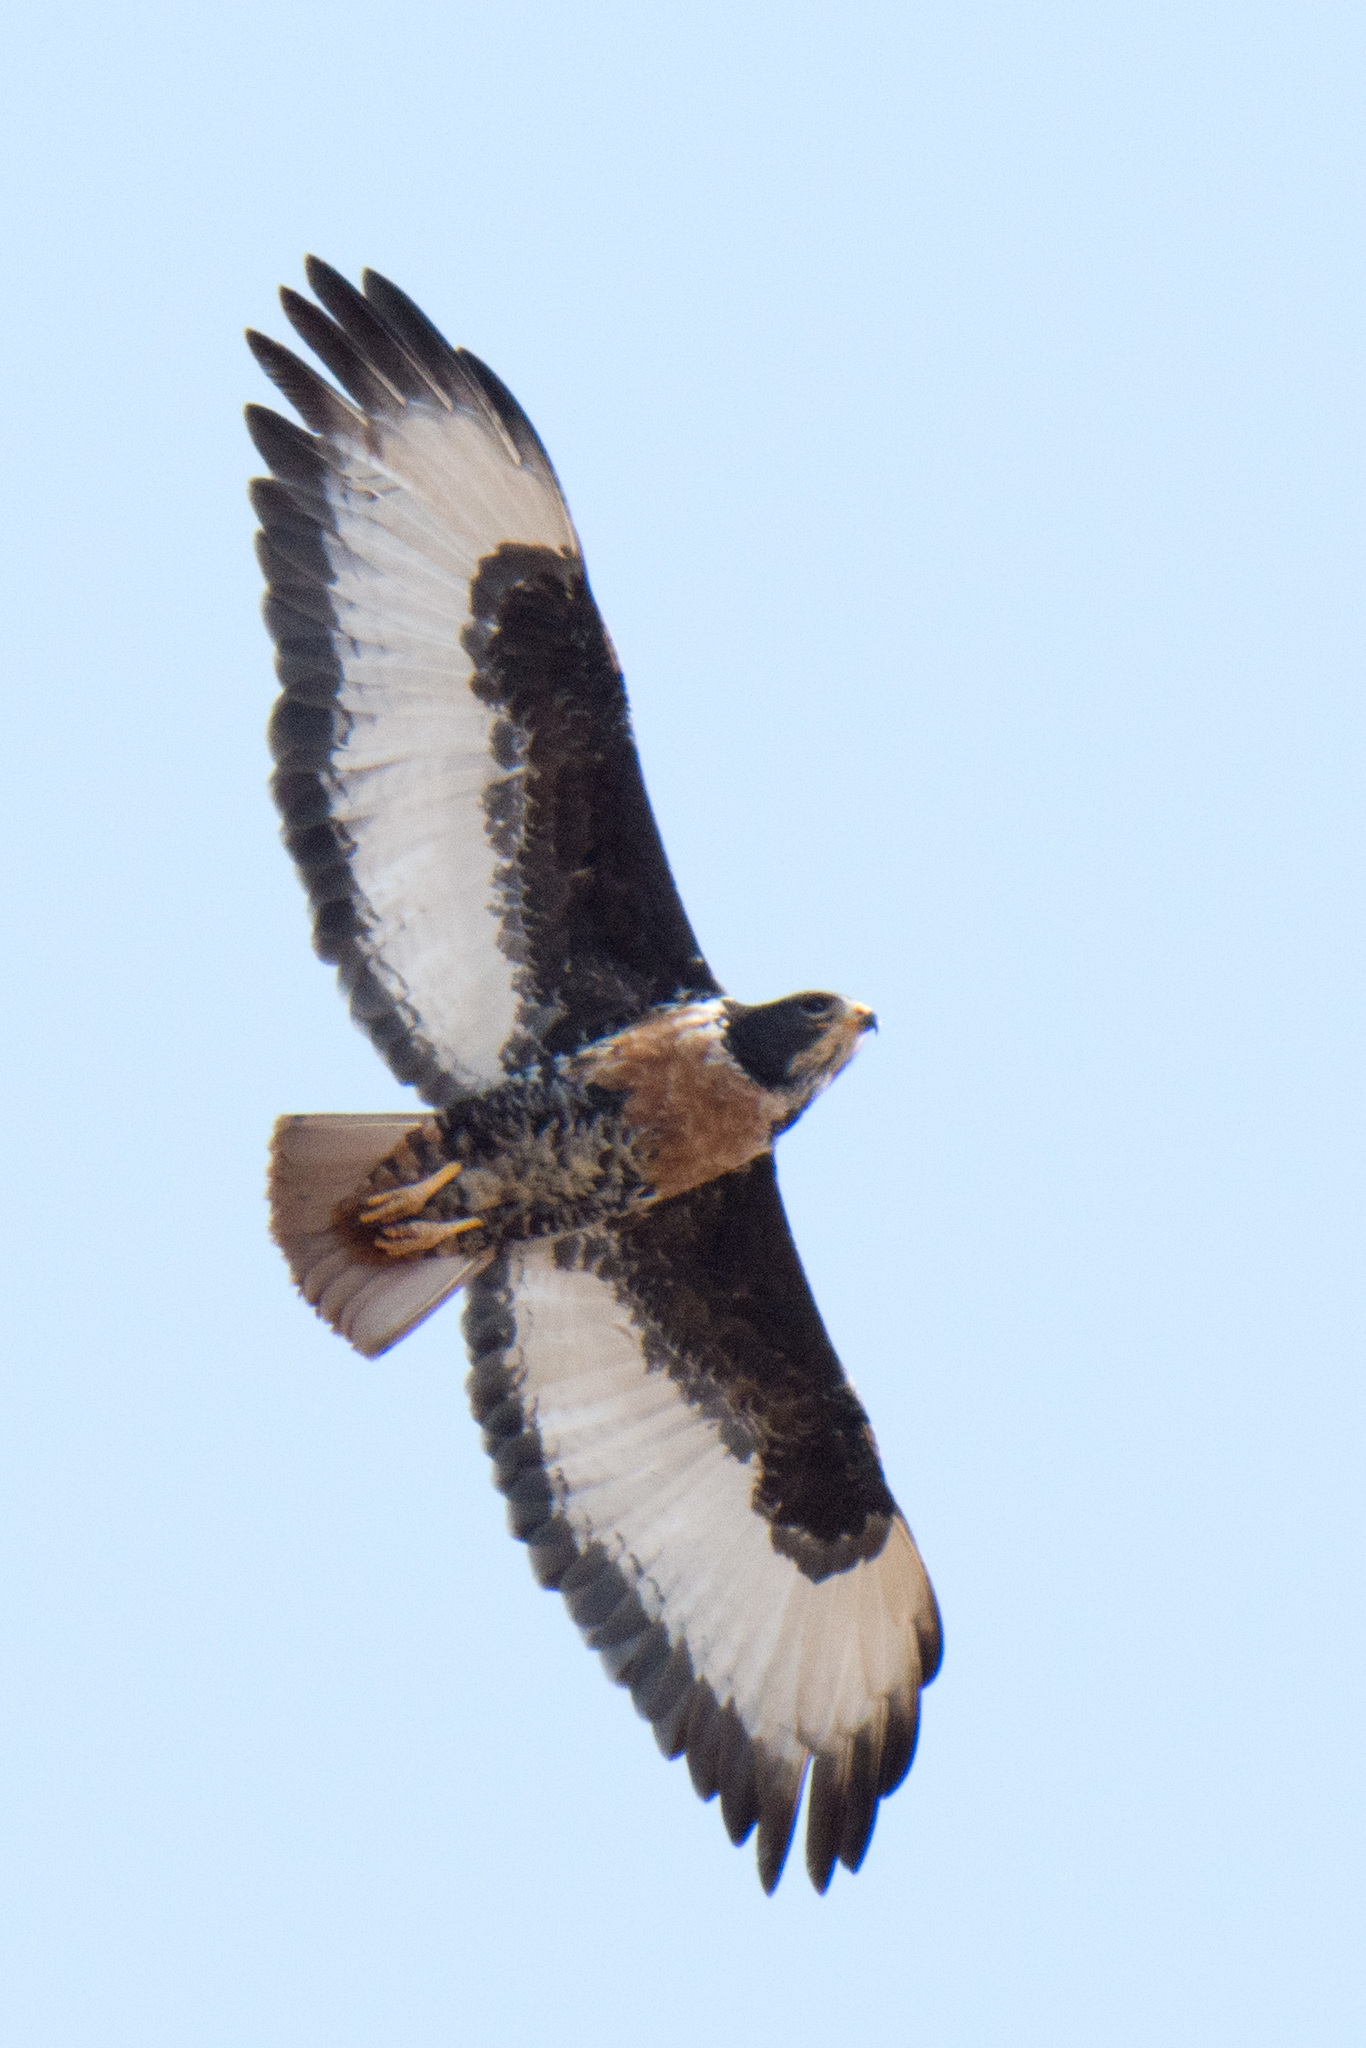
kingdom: Animalia
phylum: Chordata
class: Aves
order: Accipitriformes
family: Accipitridae
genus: Buteo
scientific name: Buteo rufofuscus
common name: Jackal buzzard
